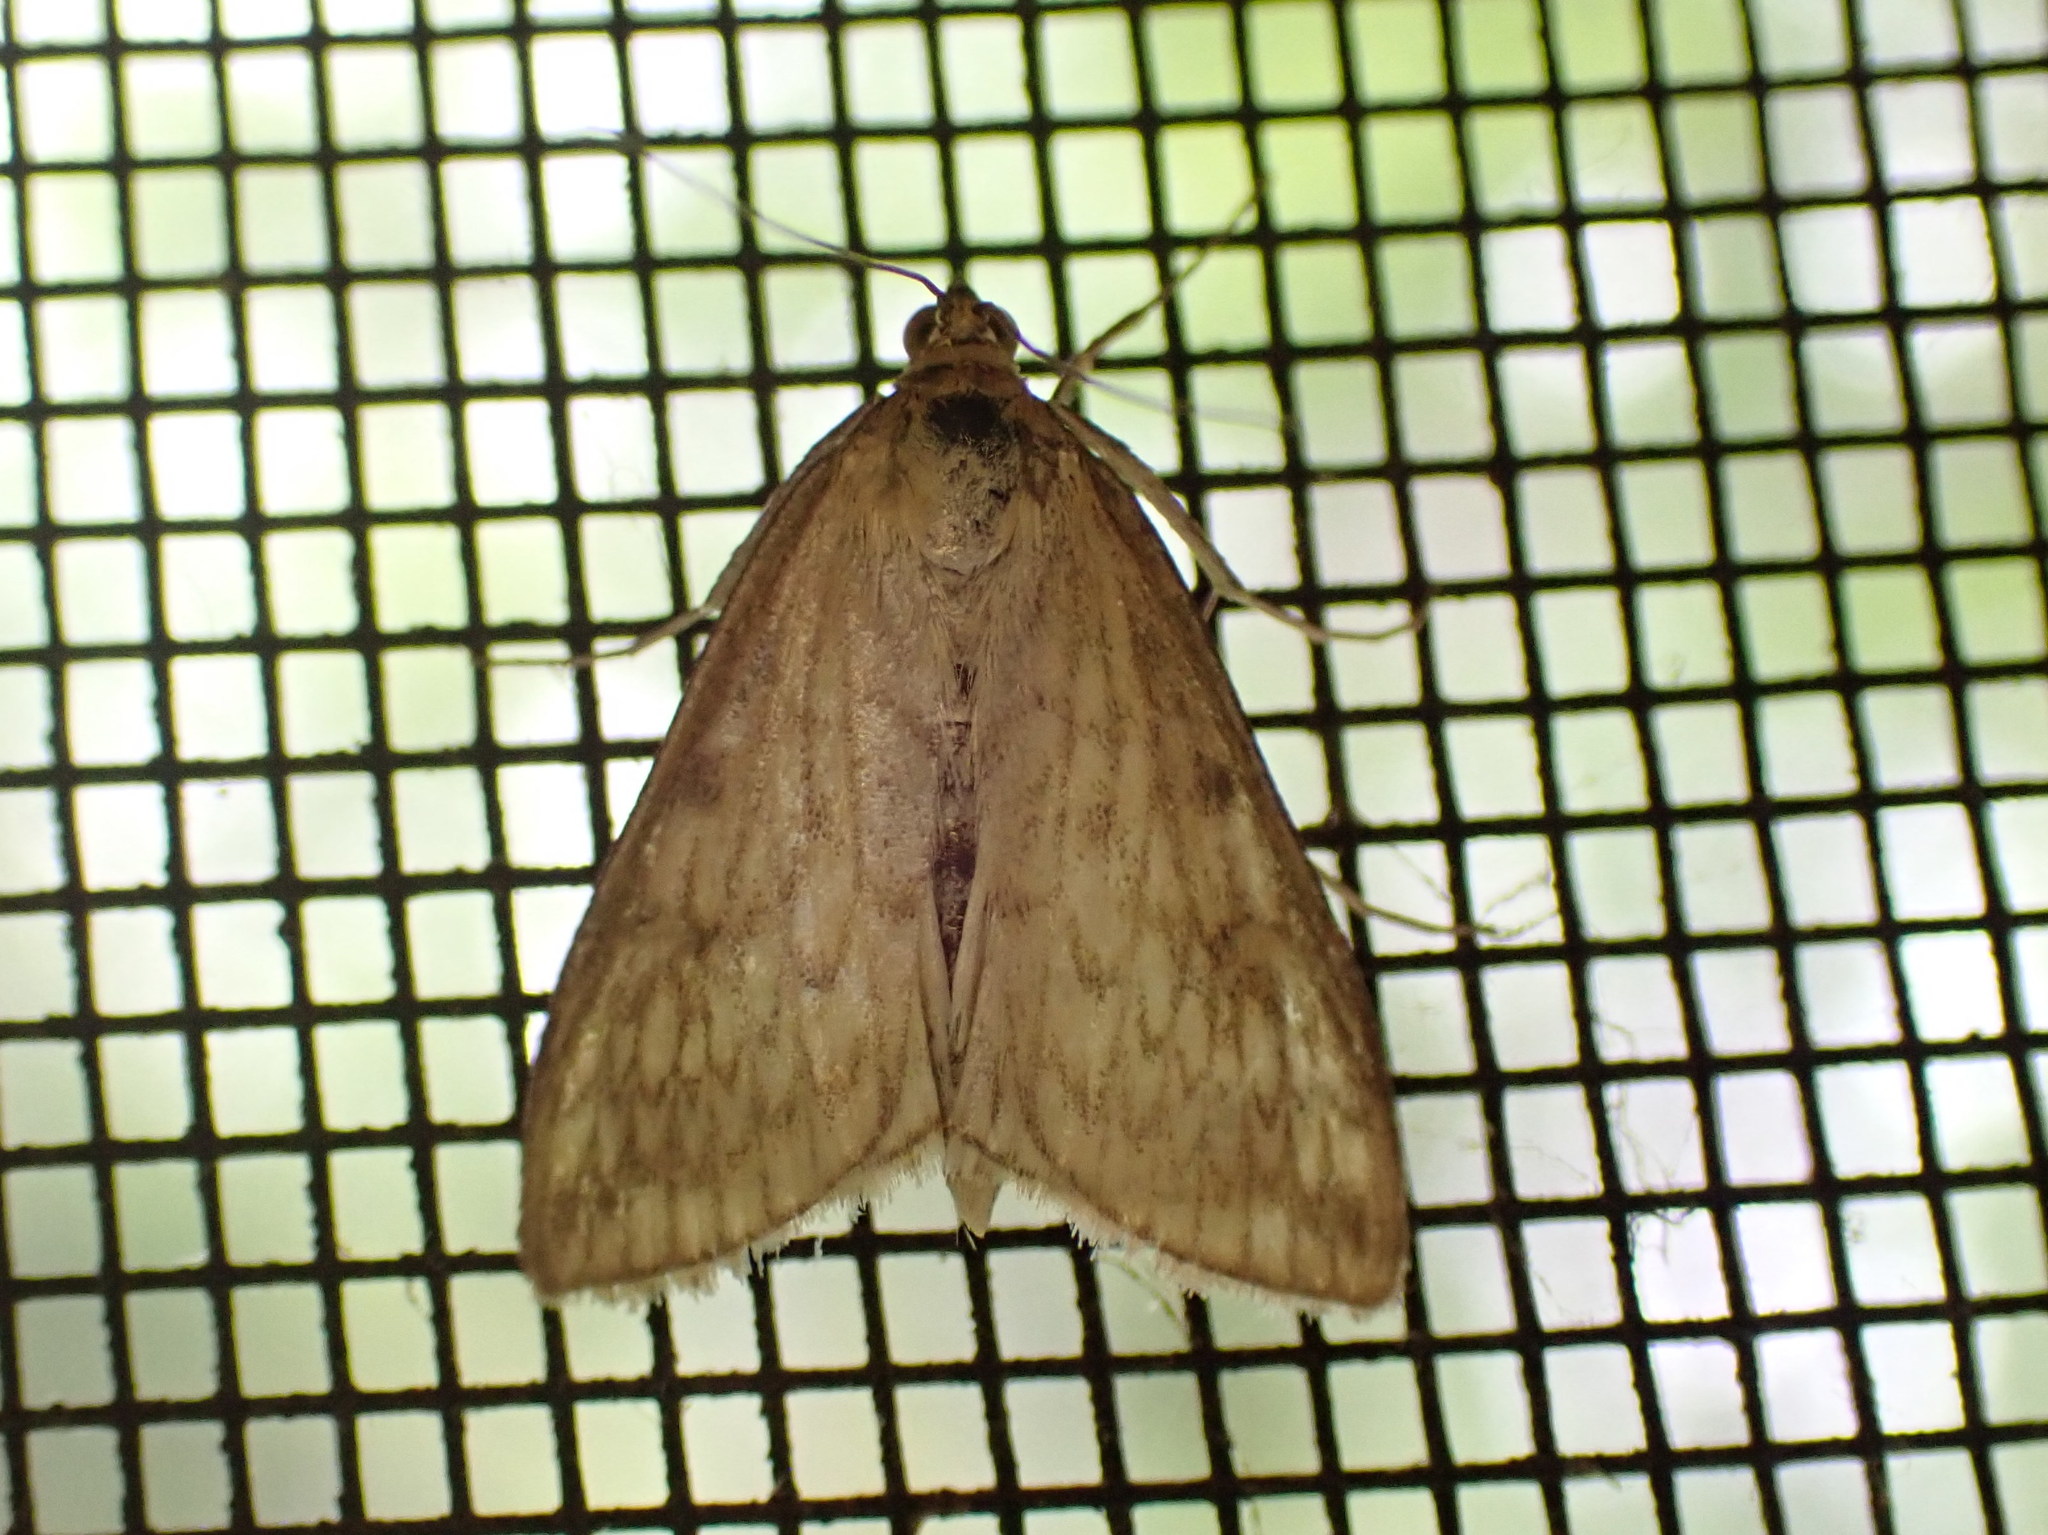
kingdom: Animalia
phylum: Arthropoda
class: Insecta
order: Lepidoptera
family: Crambidae
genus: Sitochroa
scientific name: Sitochroa chortalis
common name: Dimorphic sitochroa moth
